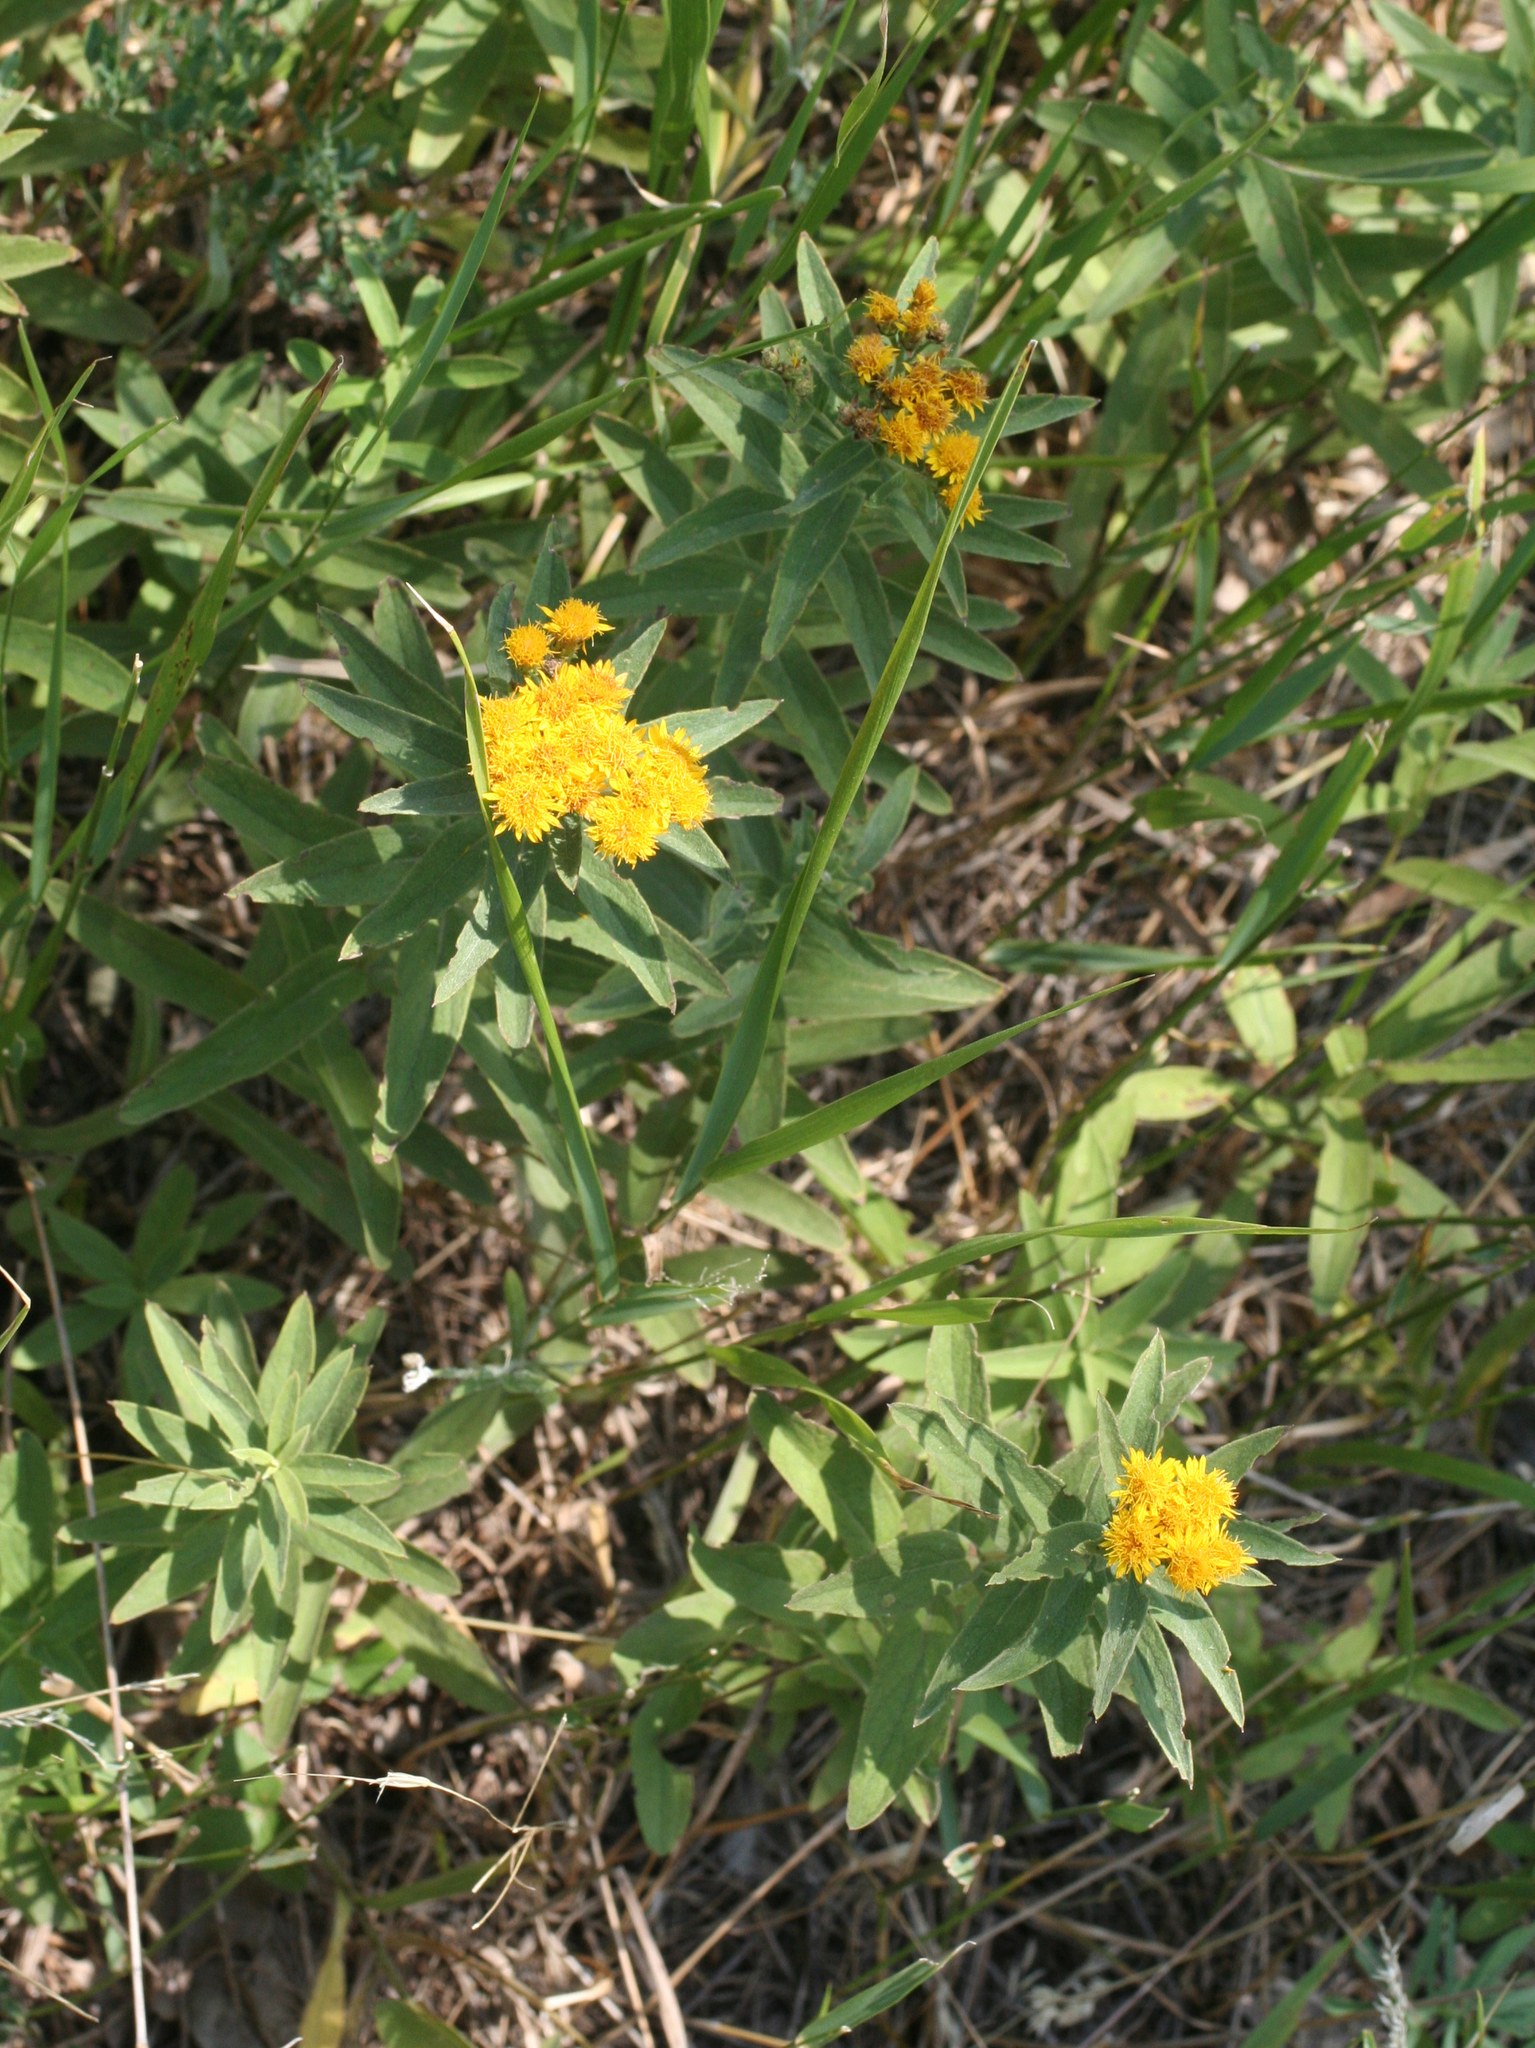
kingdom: Plantae
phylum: Tracheophyta
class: Magnoliopsida
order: Asterales
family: Asteraceae
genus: Pentanema
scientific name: Pentanema germanicum
